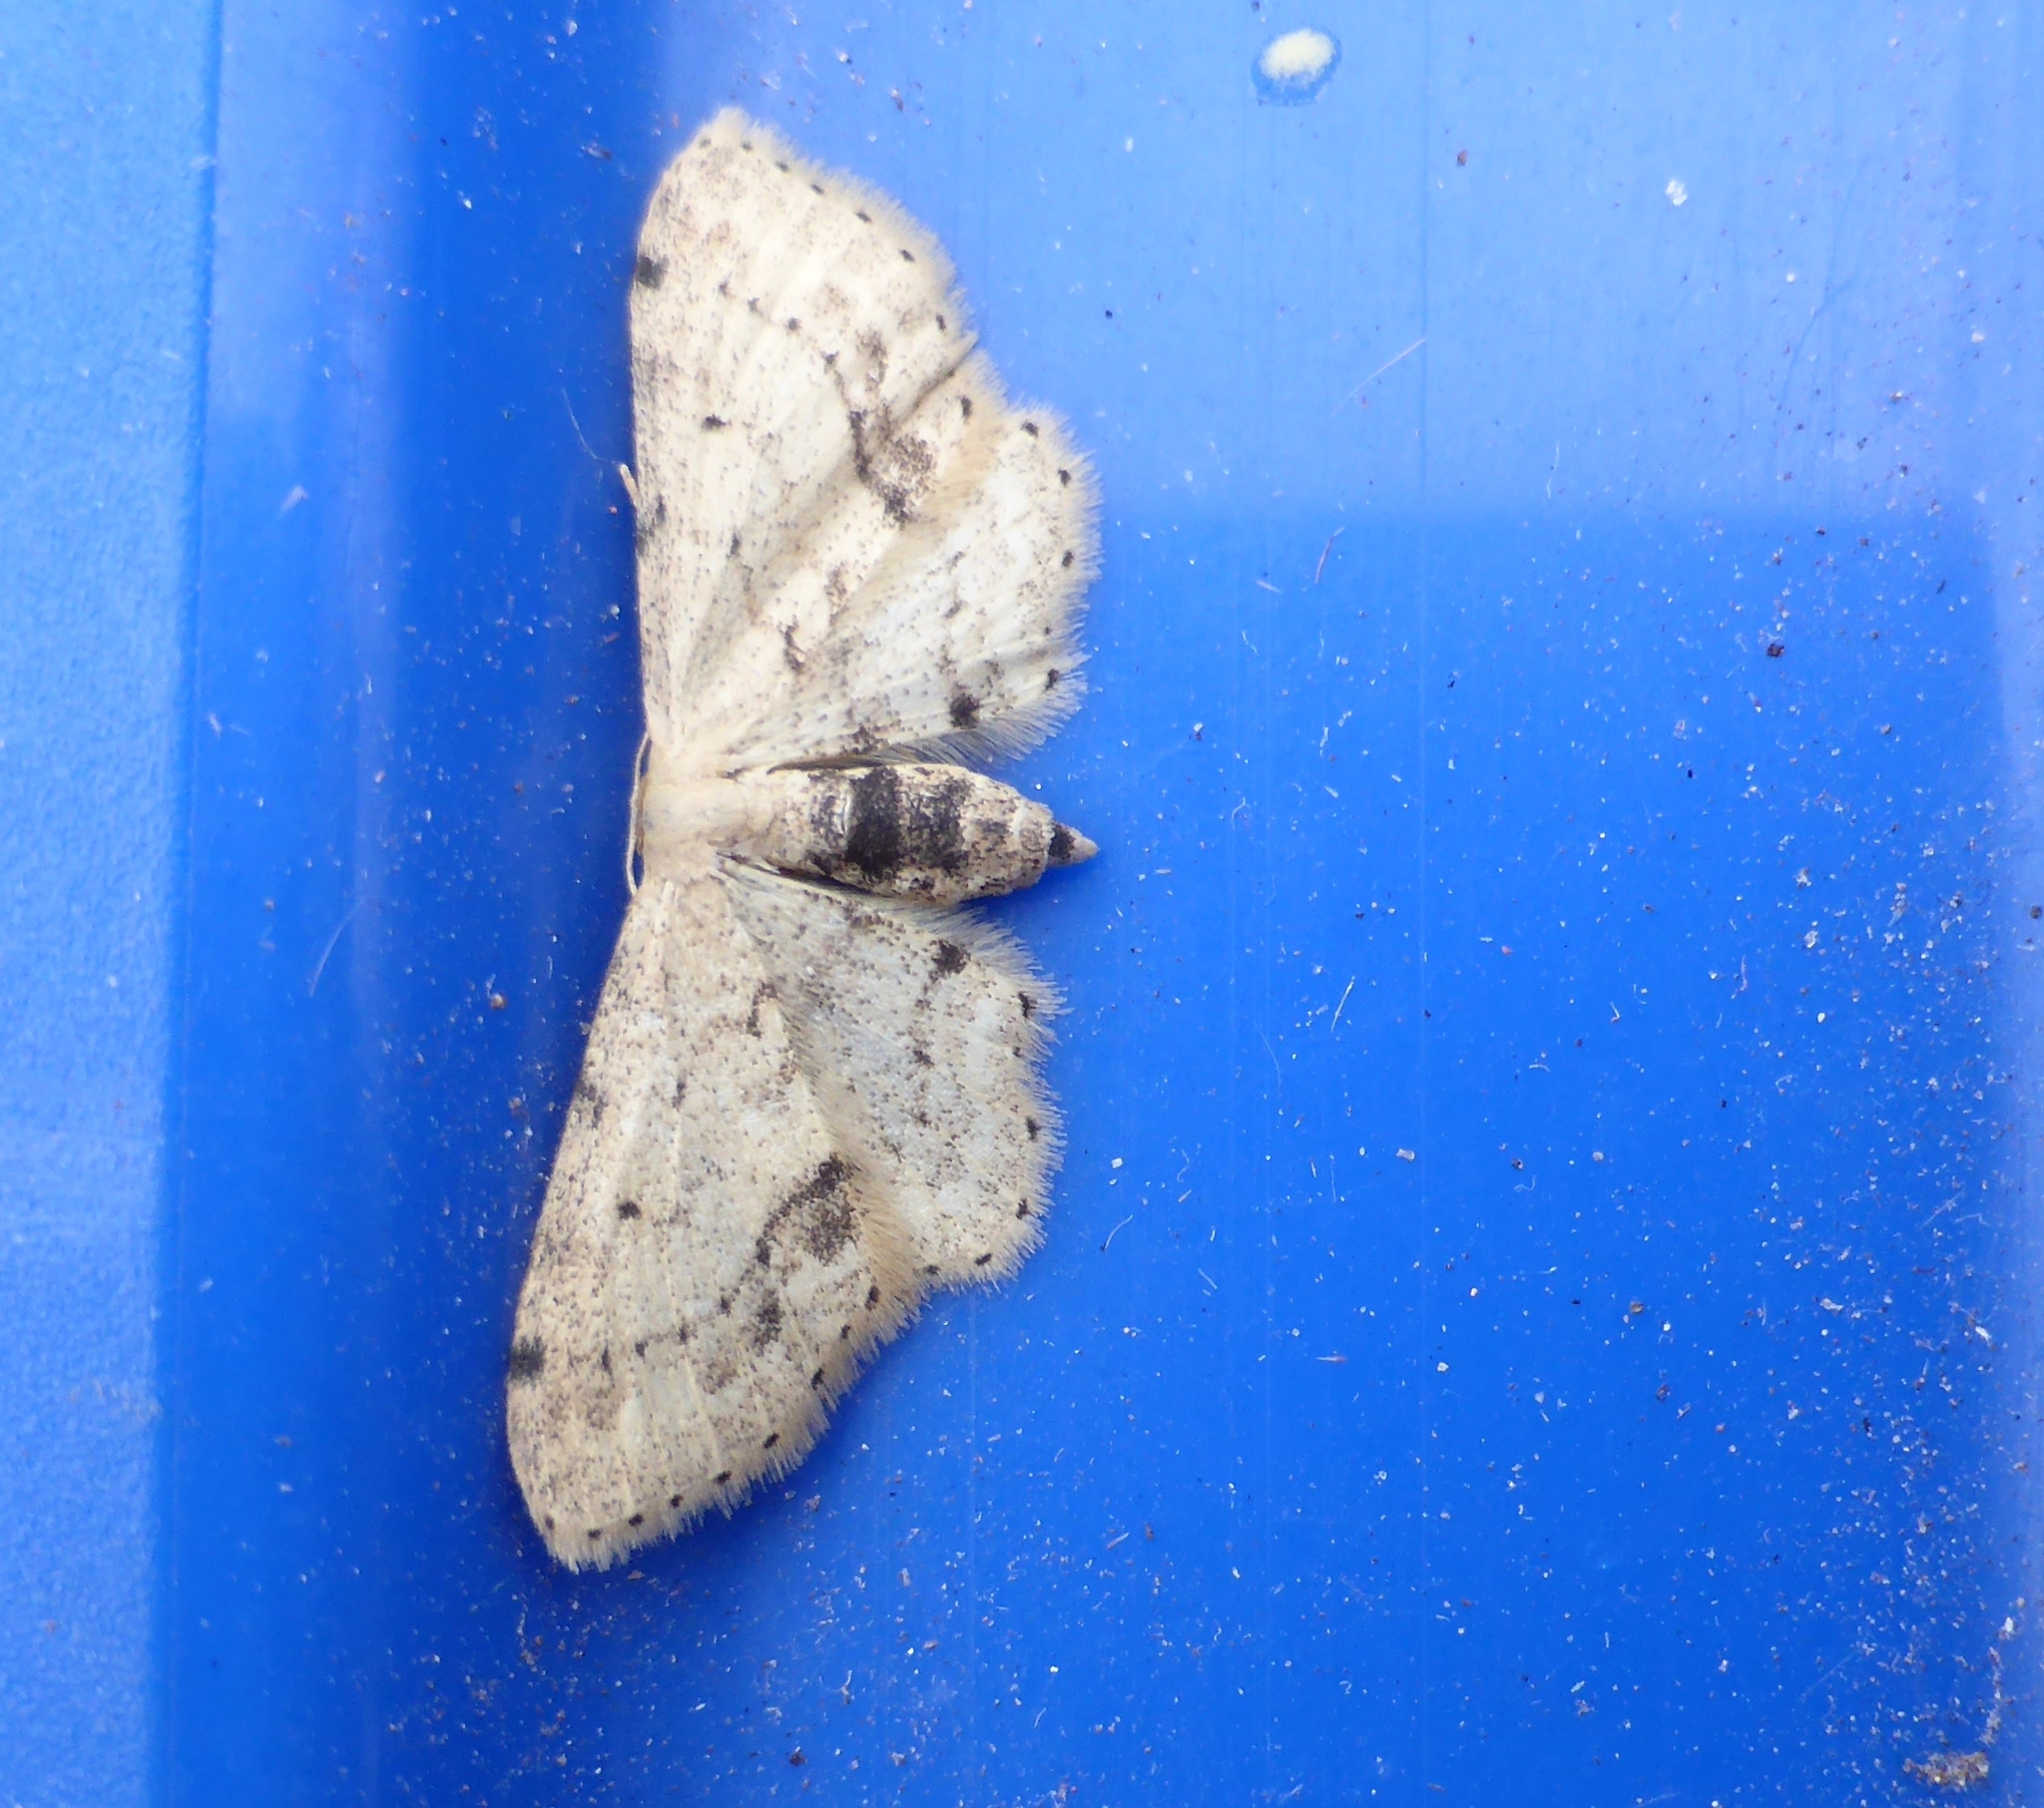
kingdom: Animalia
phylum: Arthropoda
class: Insecta
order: Lepidoptera
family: Geometridae
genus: Idaea
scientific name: Idaea dimidiata
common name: Single-dotted wave
